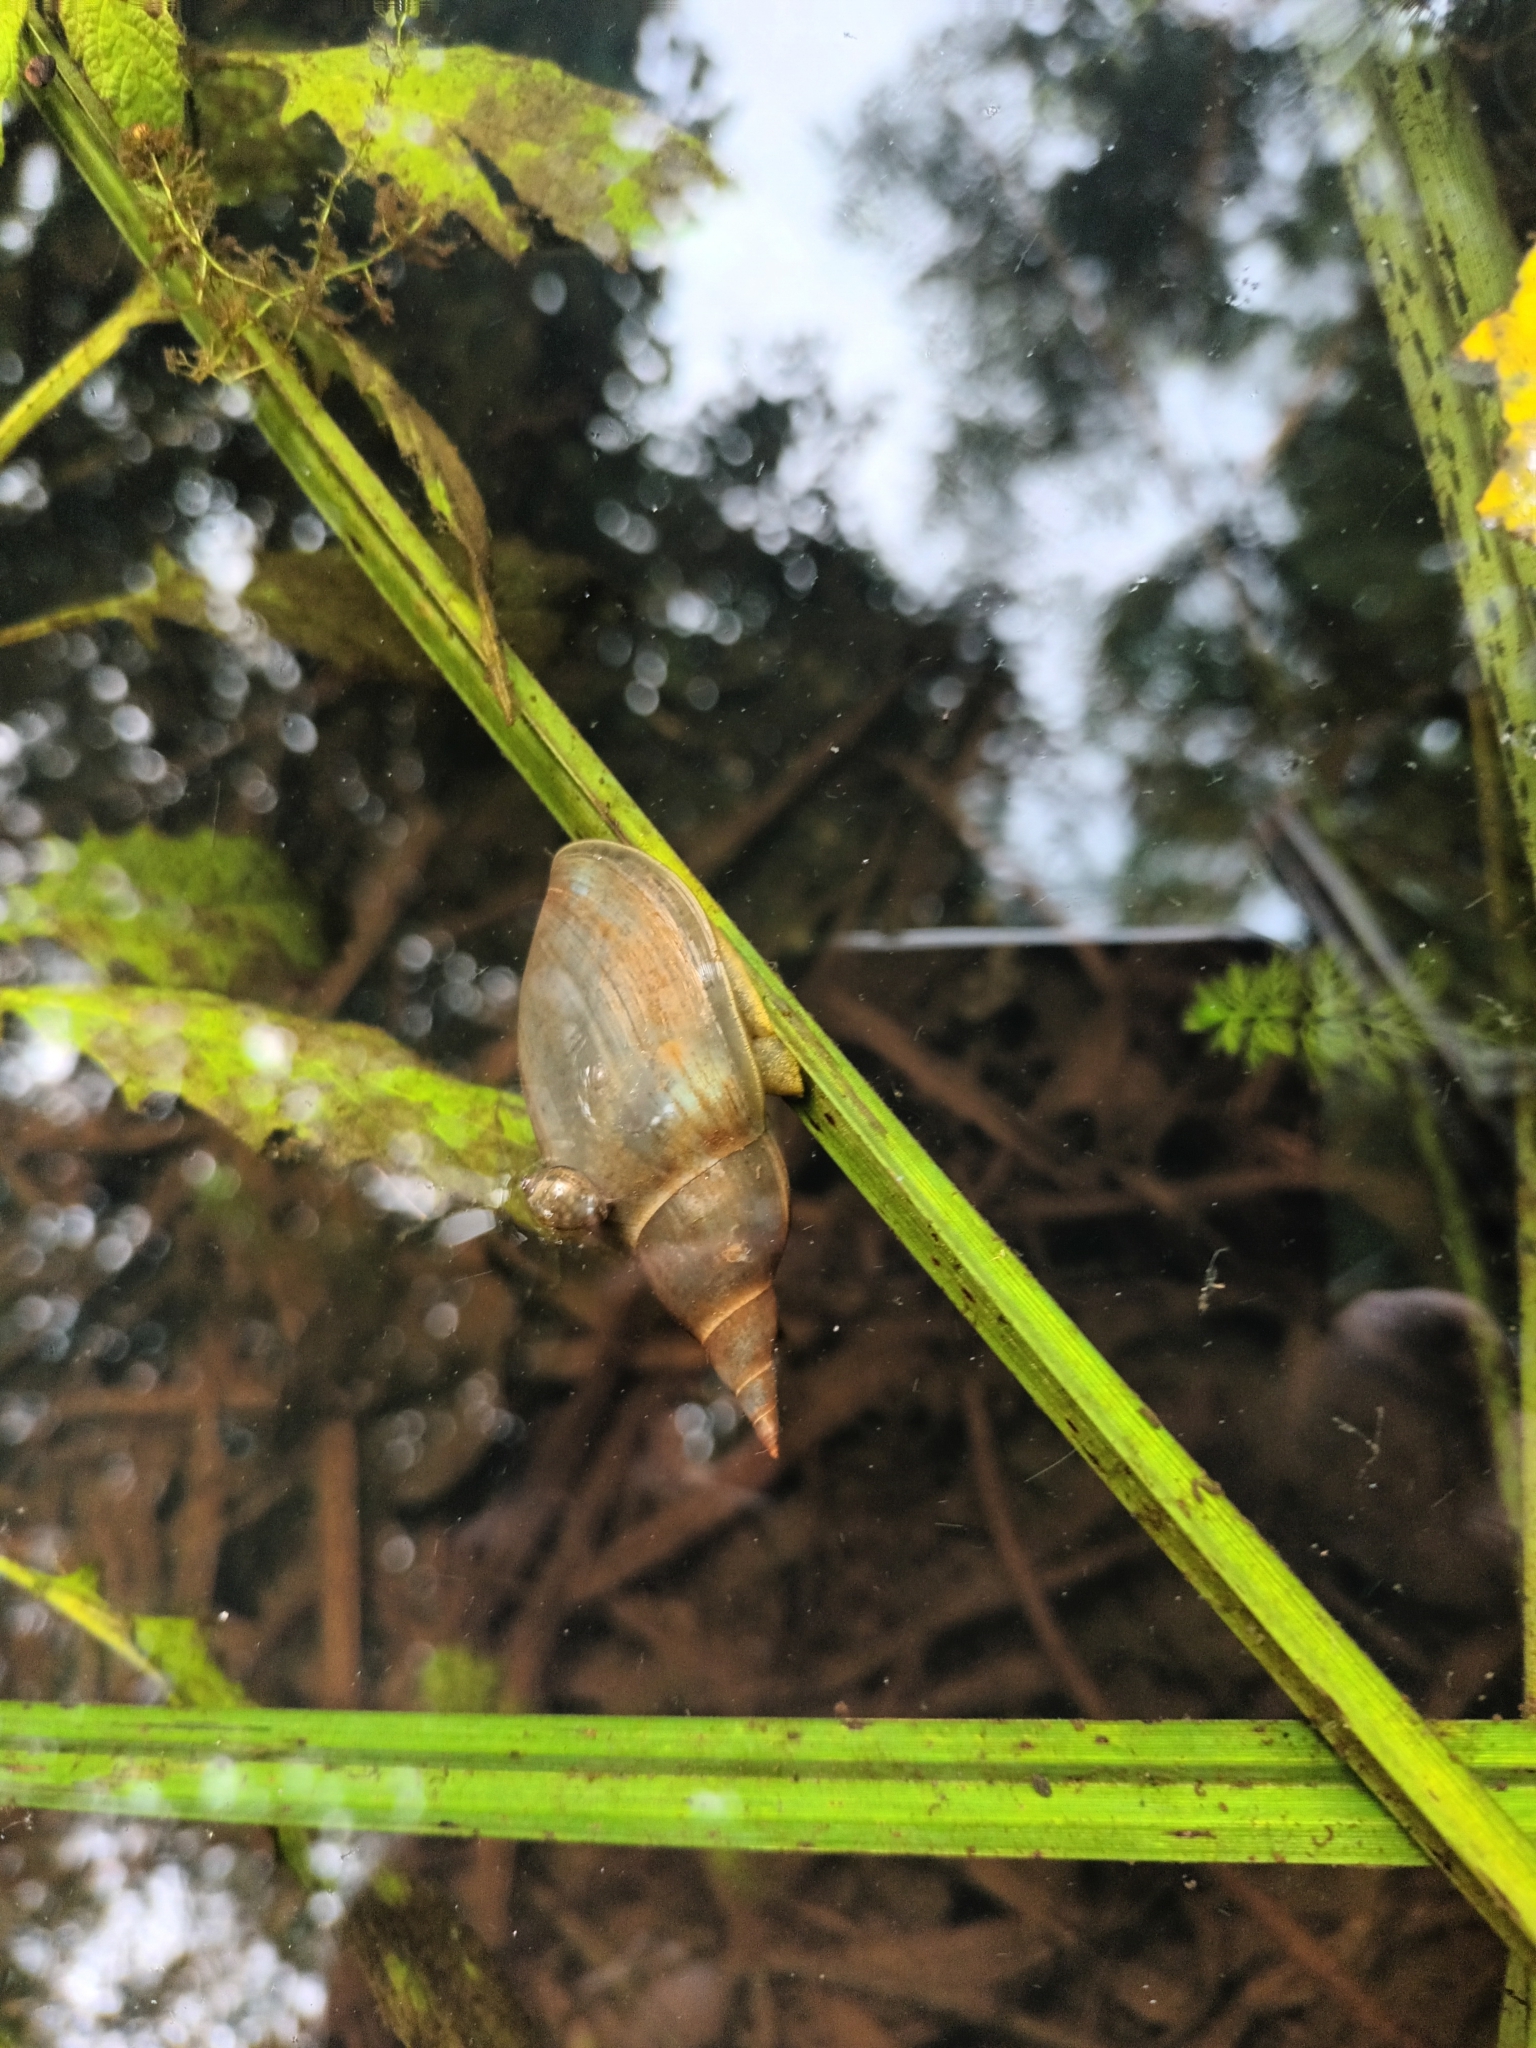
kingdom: Animalia
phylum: Mollusca
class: Gastropoda
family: Lymnaeidae
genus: Lymnaea
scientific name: Lymnaea stagnalis
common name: Great pond snail
